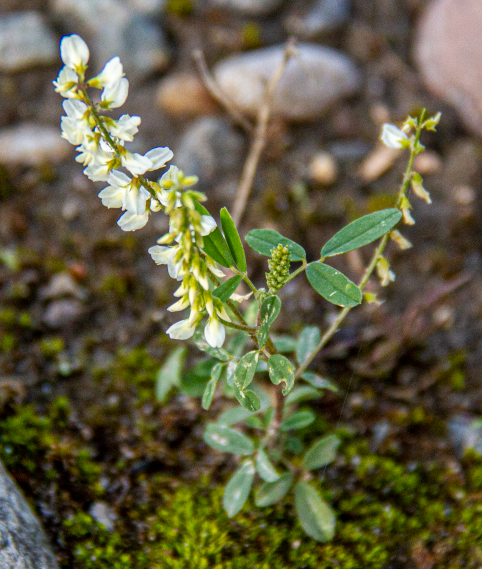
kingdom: Plantae
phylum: Tracheophyta
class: Magnoliopsida
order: Fabales
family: Fabaceae
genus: Melilotus
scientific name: Melilotus albus
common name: White melilot
